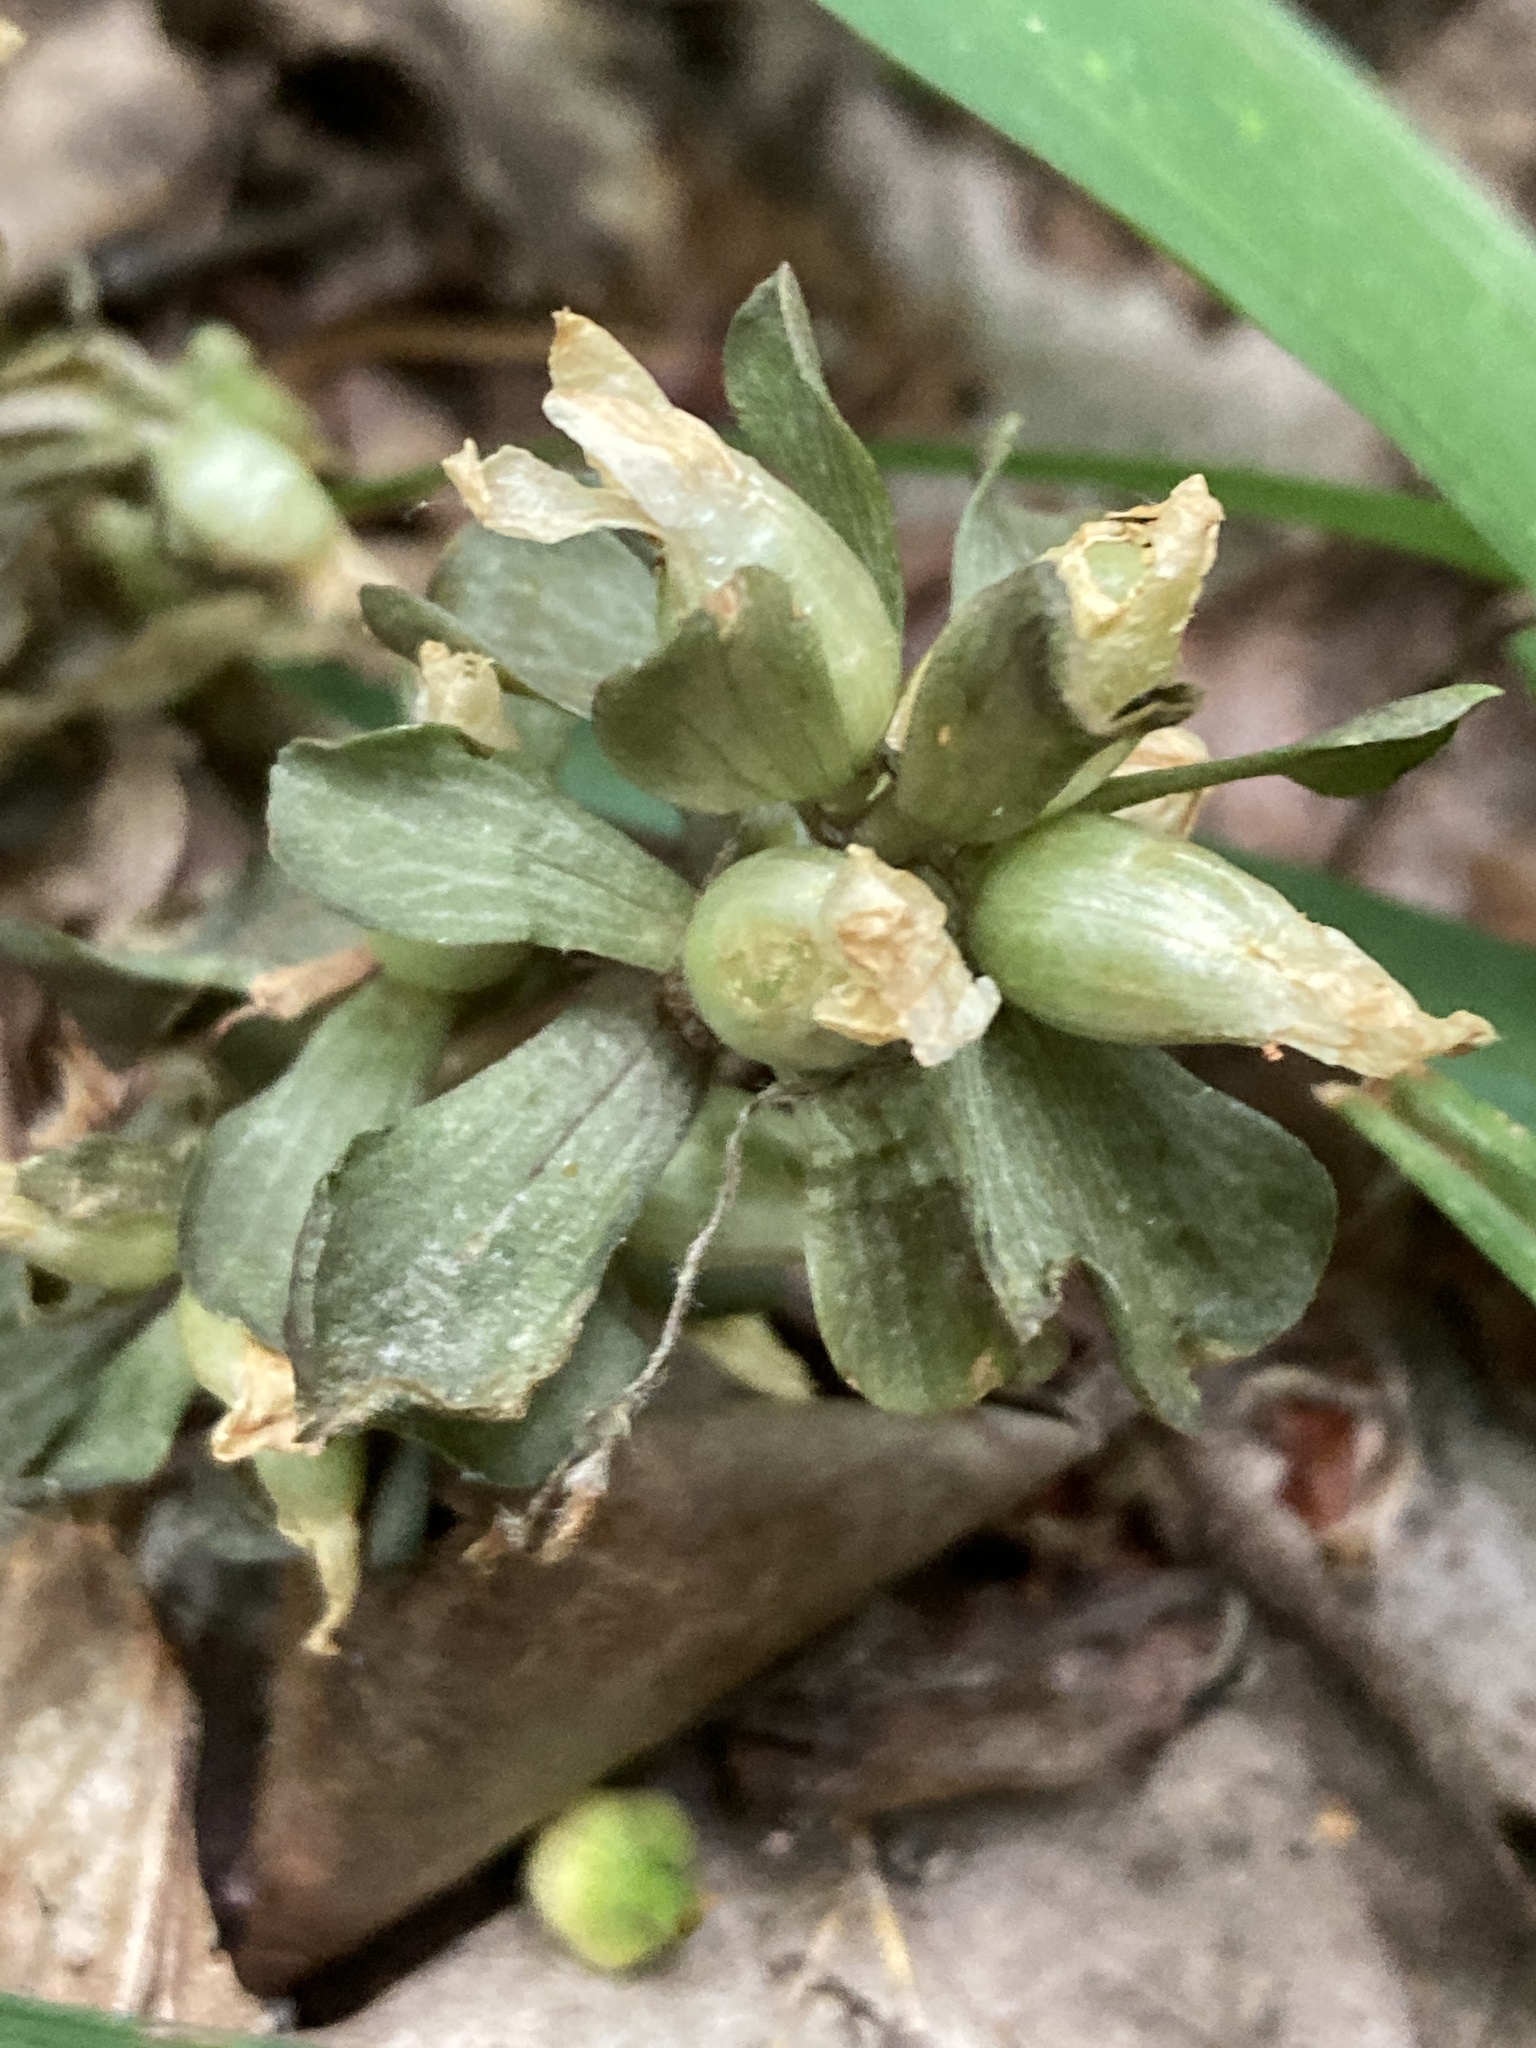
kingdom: Plantae
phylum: Tracheophyta
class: Magnoliopsida
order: Gentianales
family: Gentianaceae
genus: Obolaria
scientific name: Obolaria virginica
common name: Pennywort
